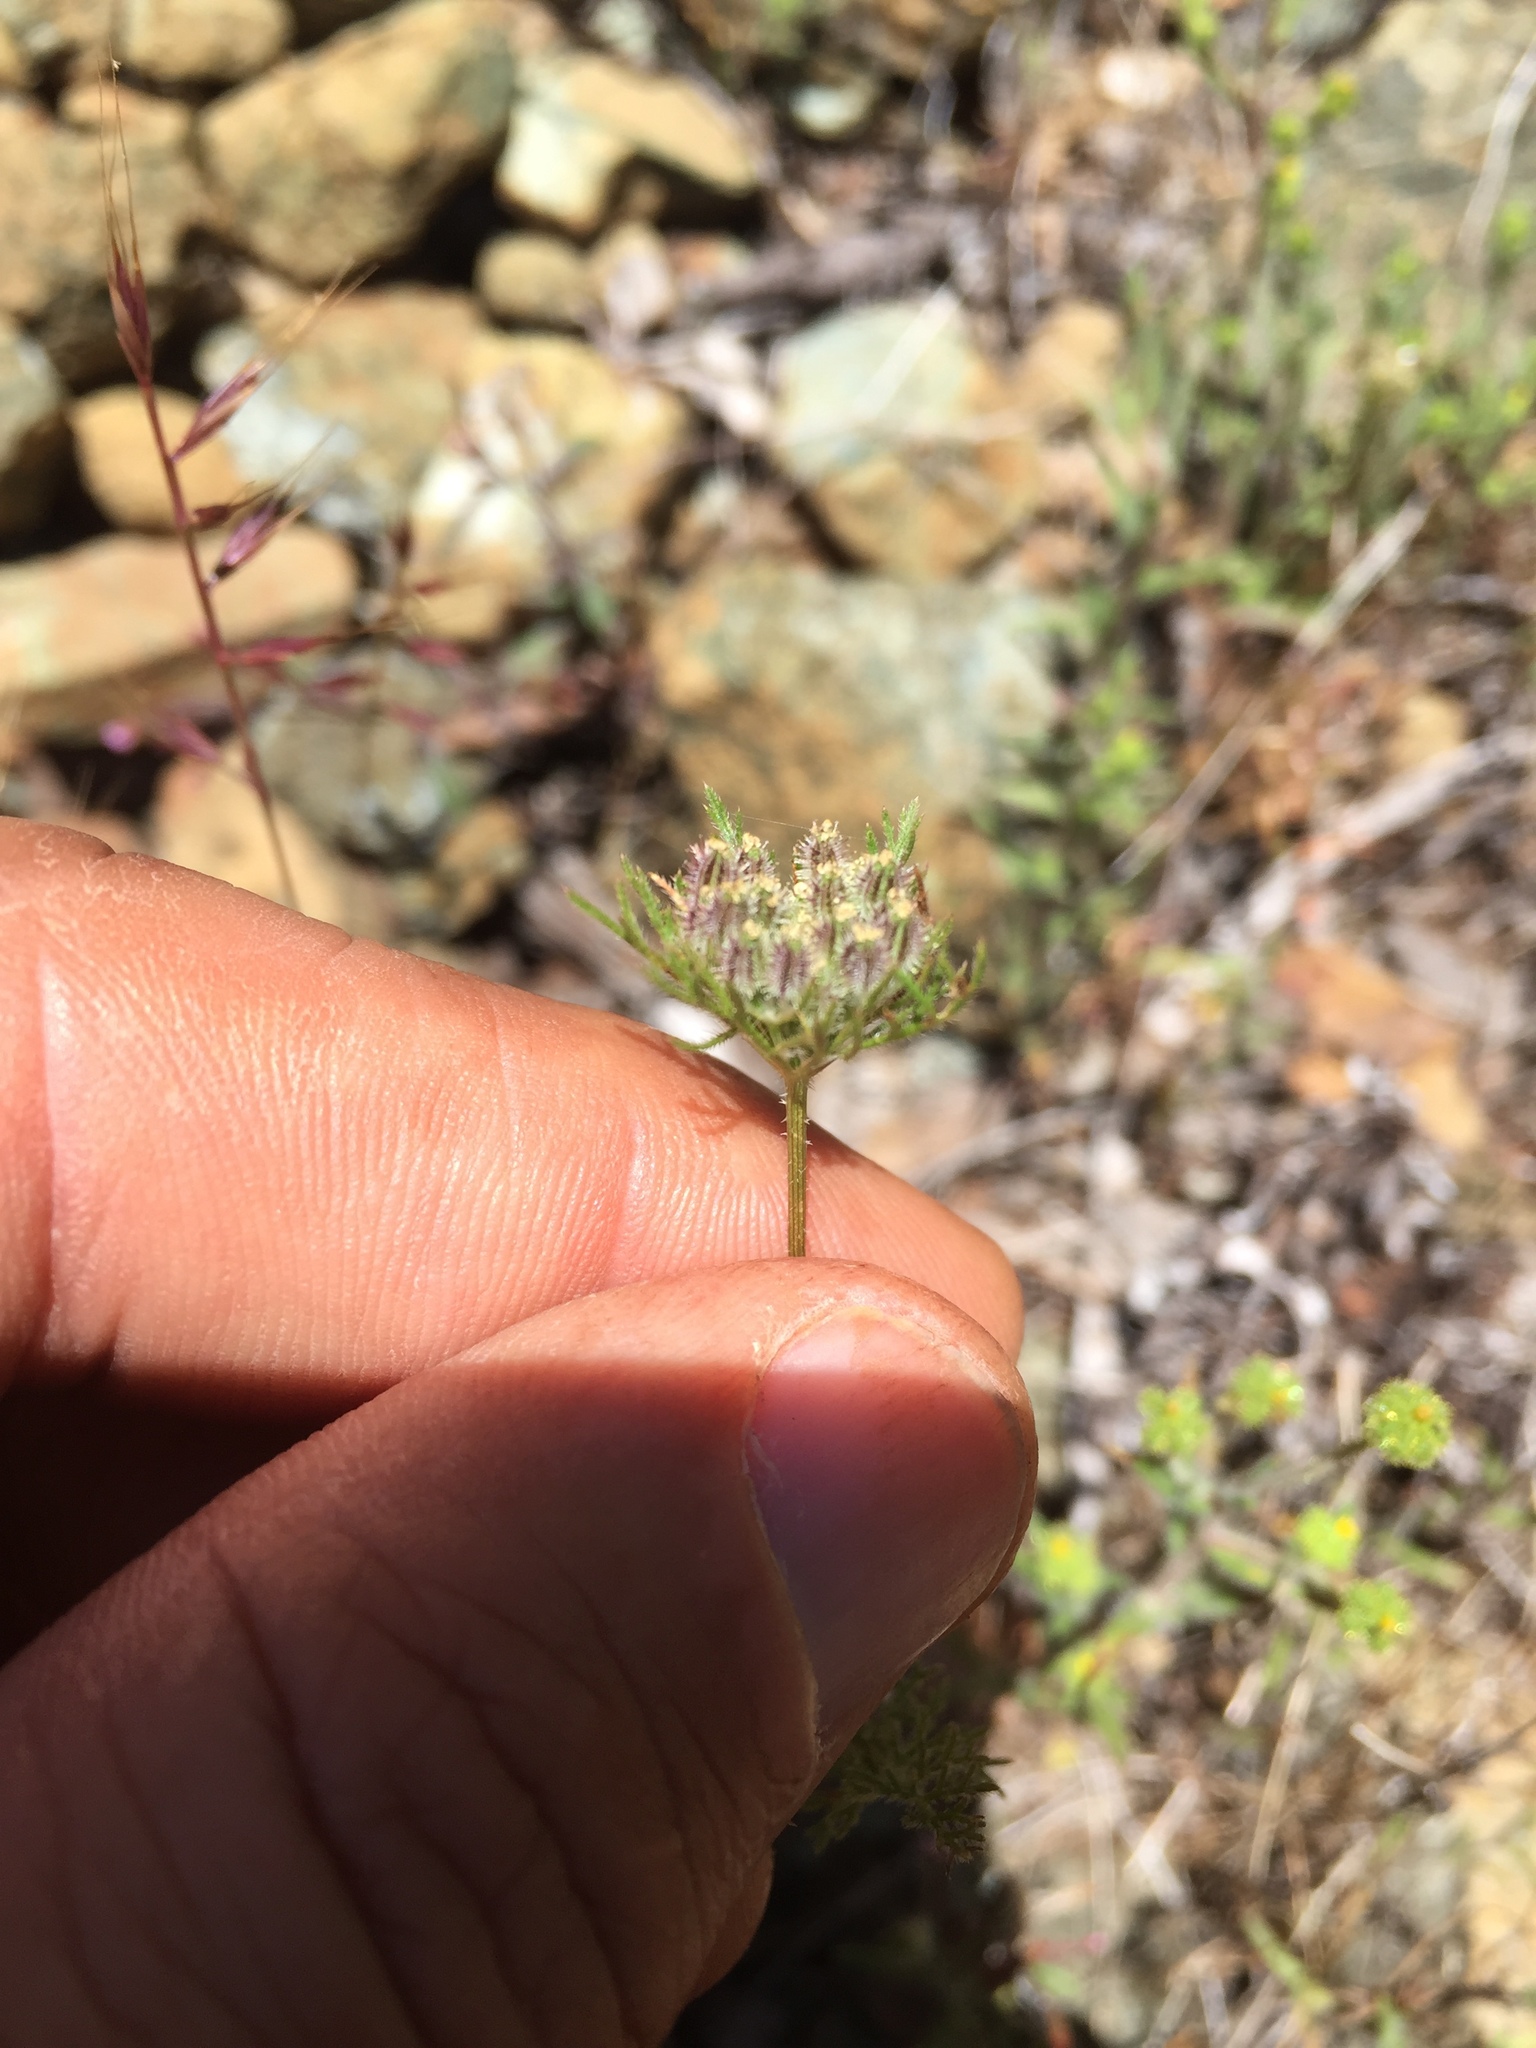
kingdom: Plantae
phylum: Tracheophyta
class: Magnoliopsida
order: Apiales
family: Apiaceae
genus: Daucus
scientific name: Daucus pusillus
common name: Southwest wild carrot
